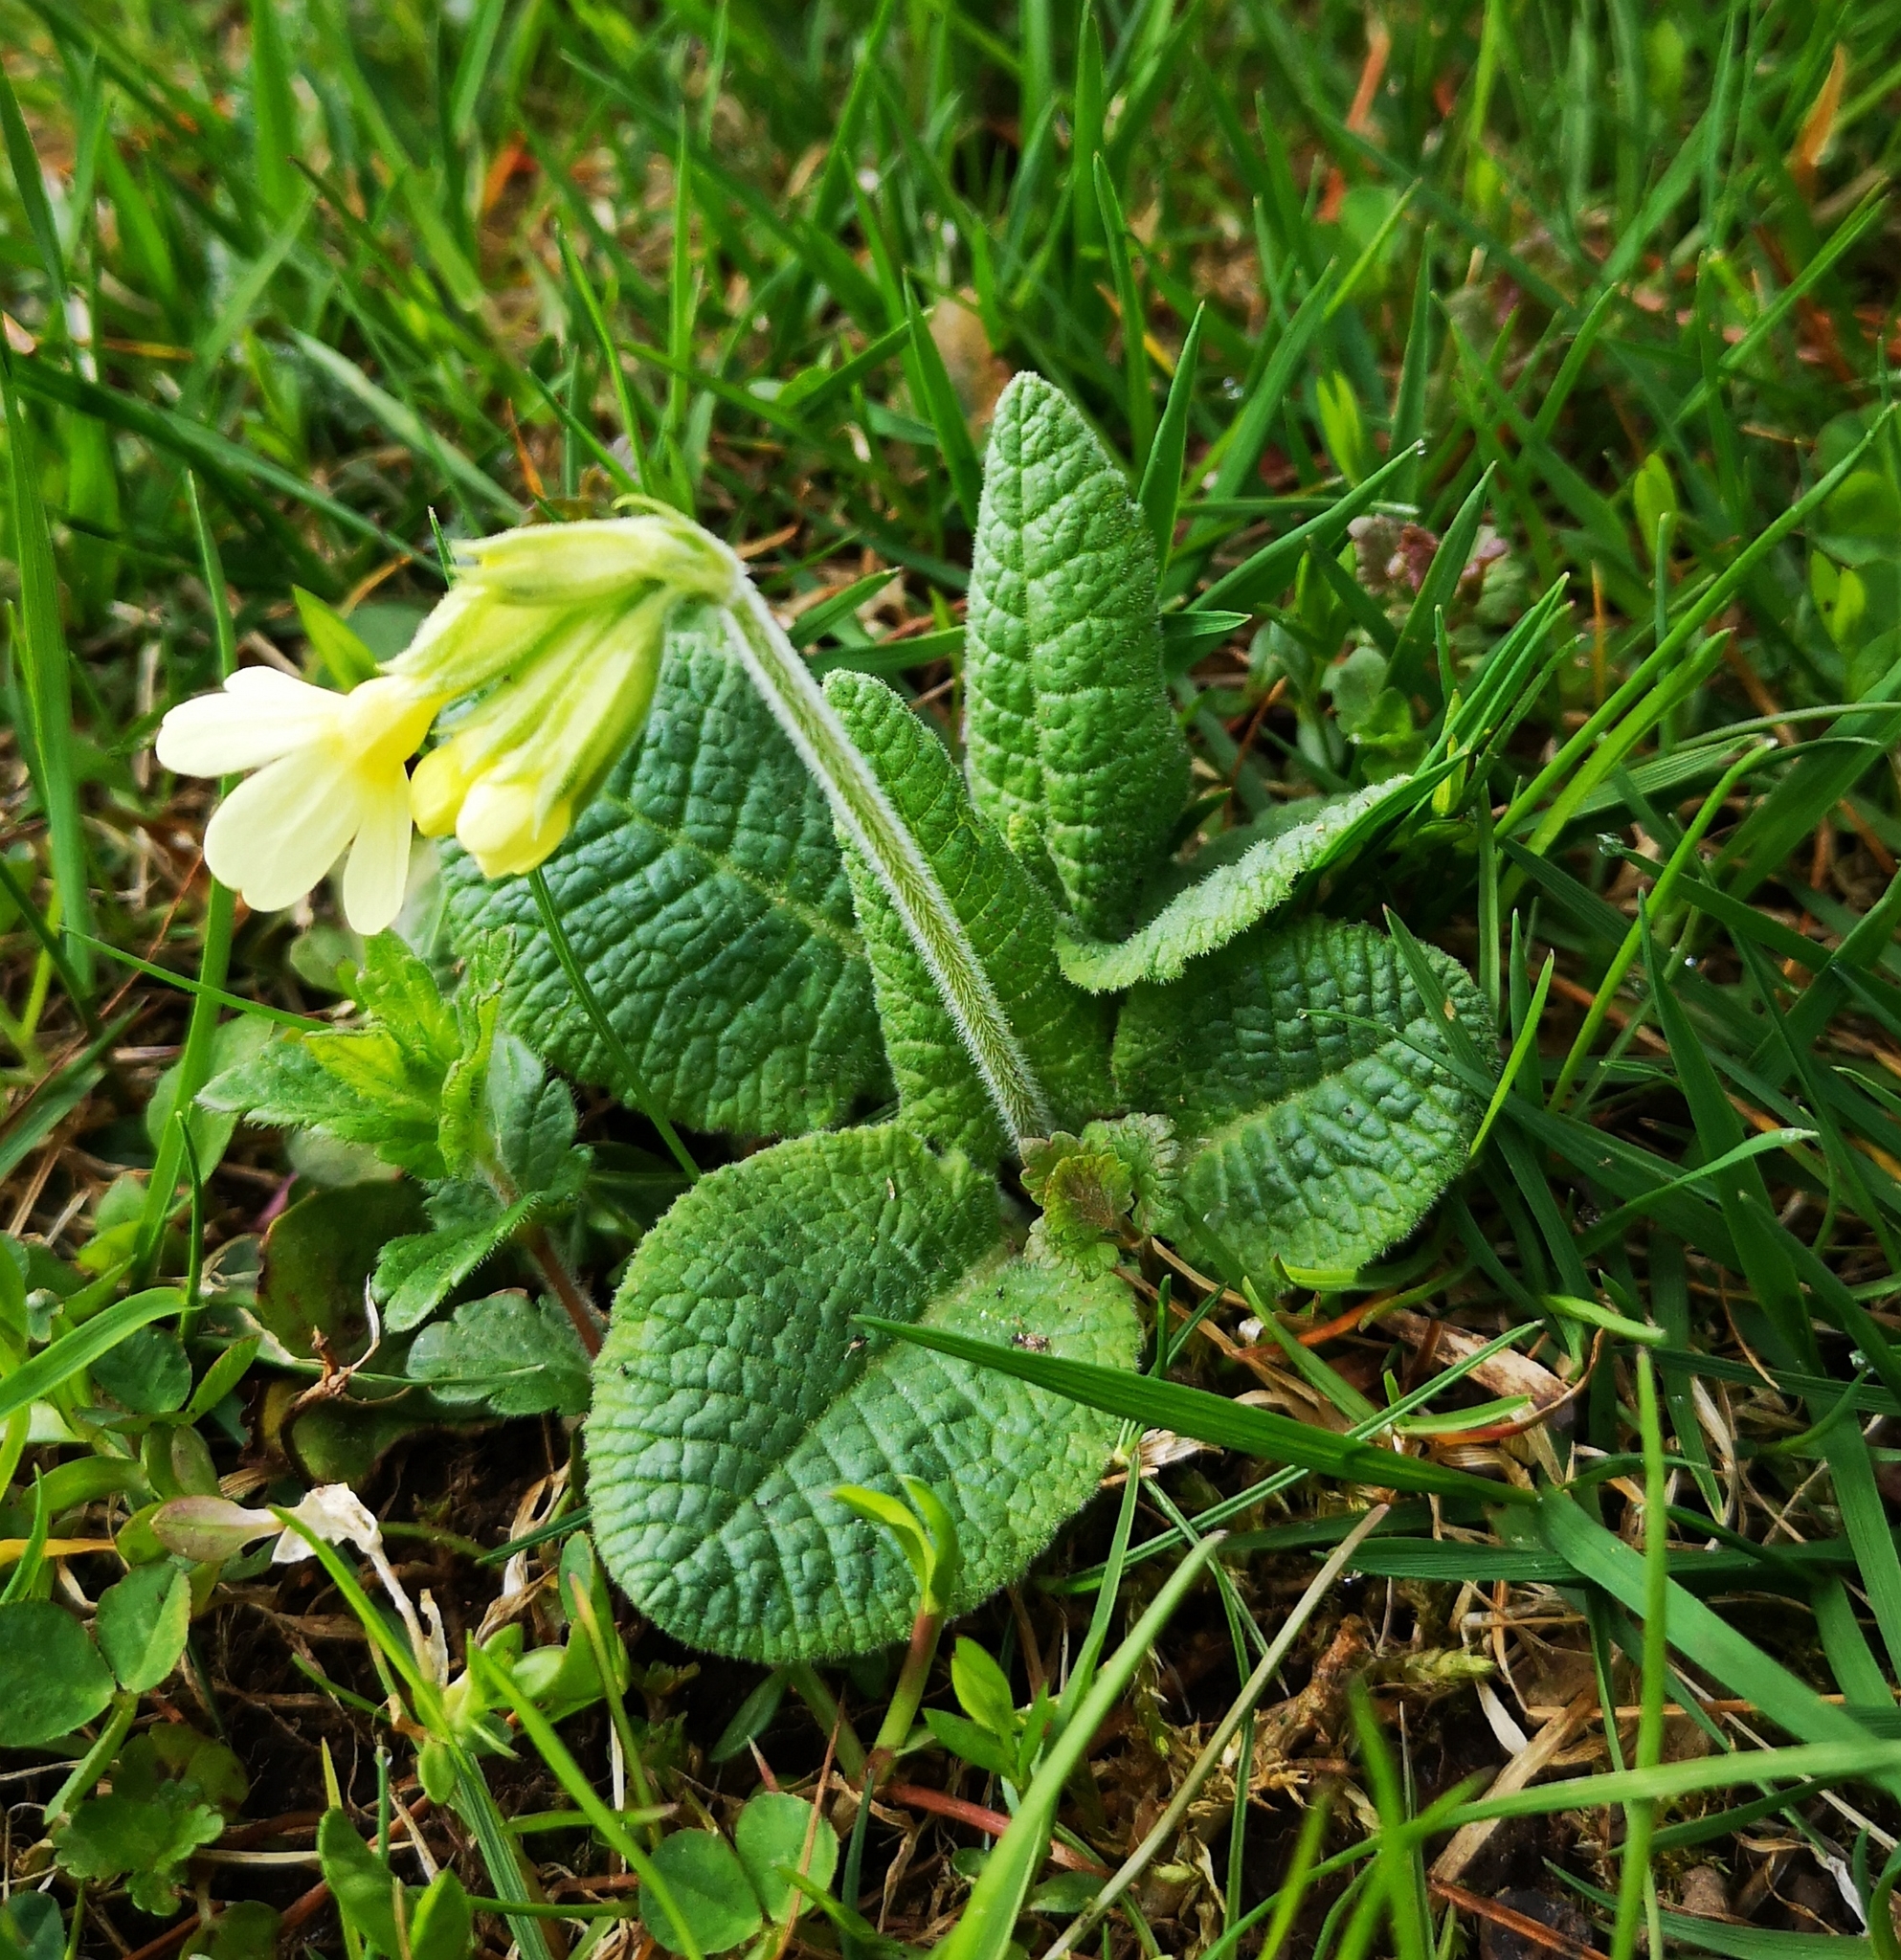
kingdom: Plantae
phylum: Tracheophyta
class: Magnoliopsida
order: Ericales
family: Primulaceae
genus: Primula
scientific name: Primula elatior
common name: Oxlip
